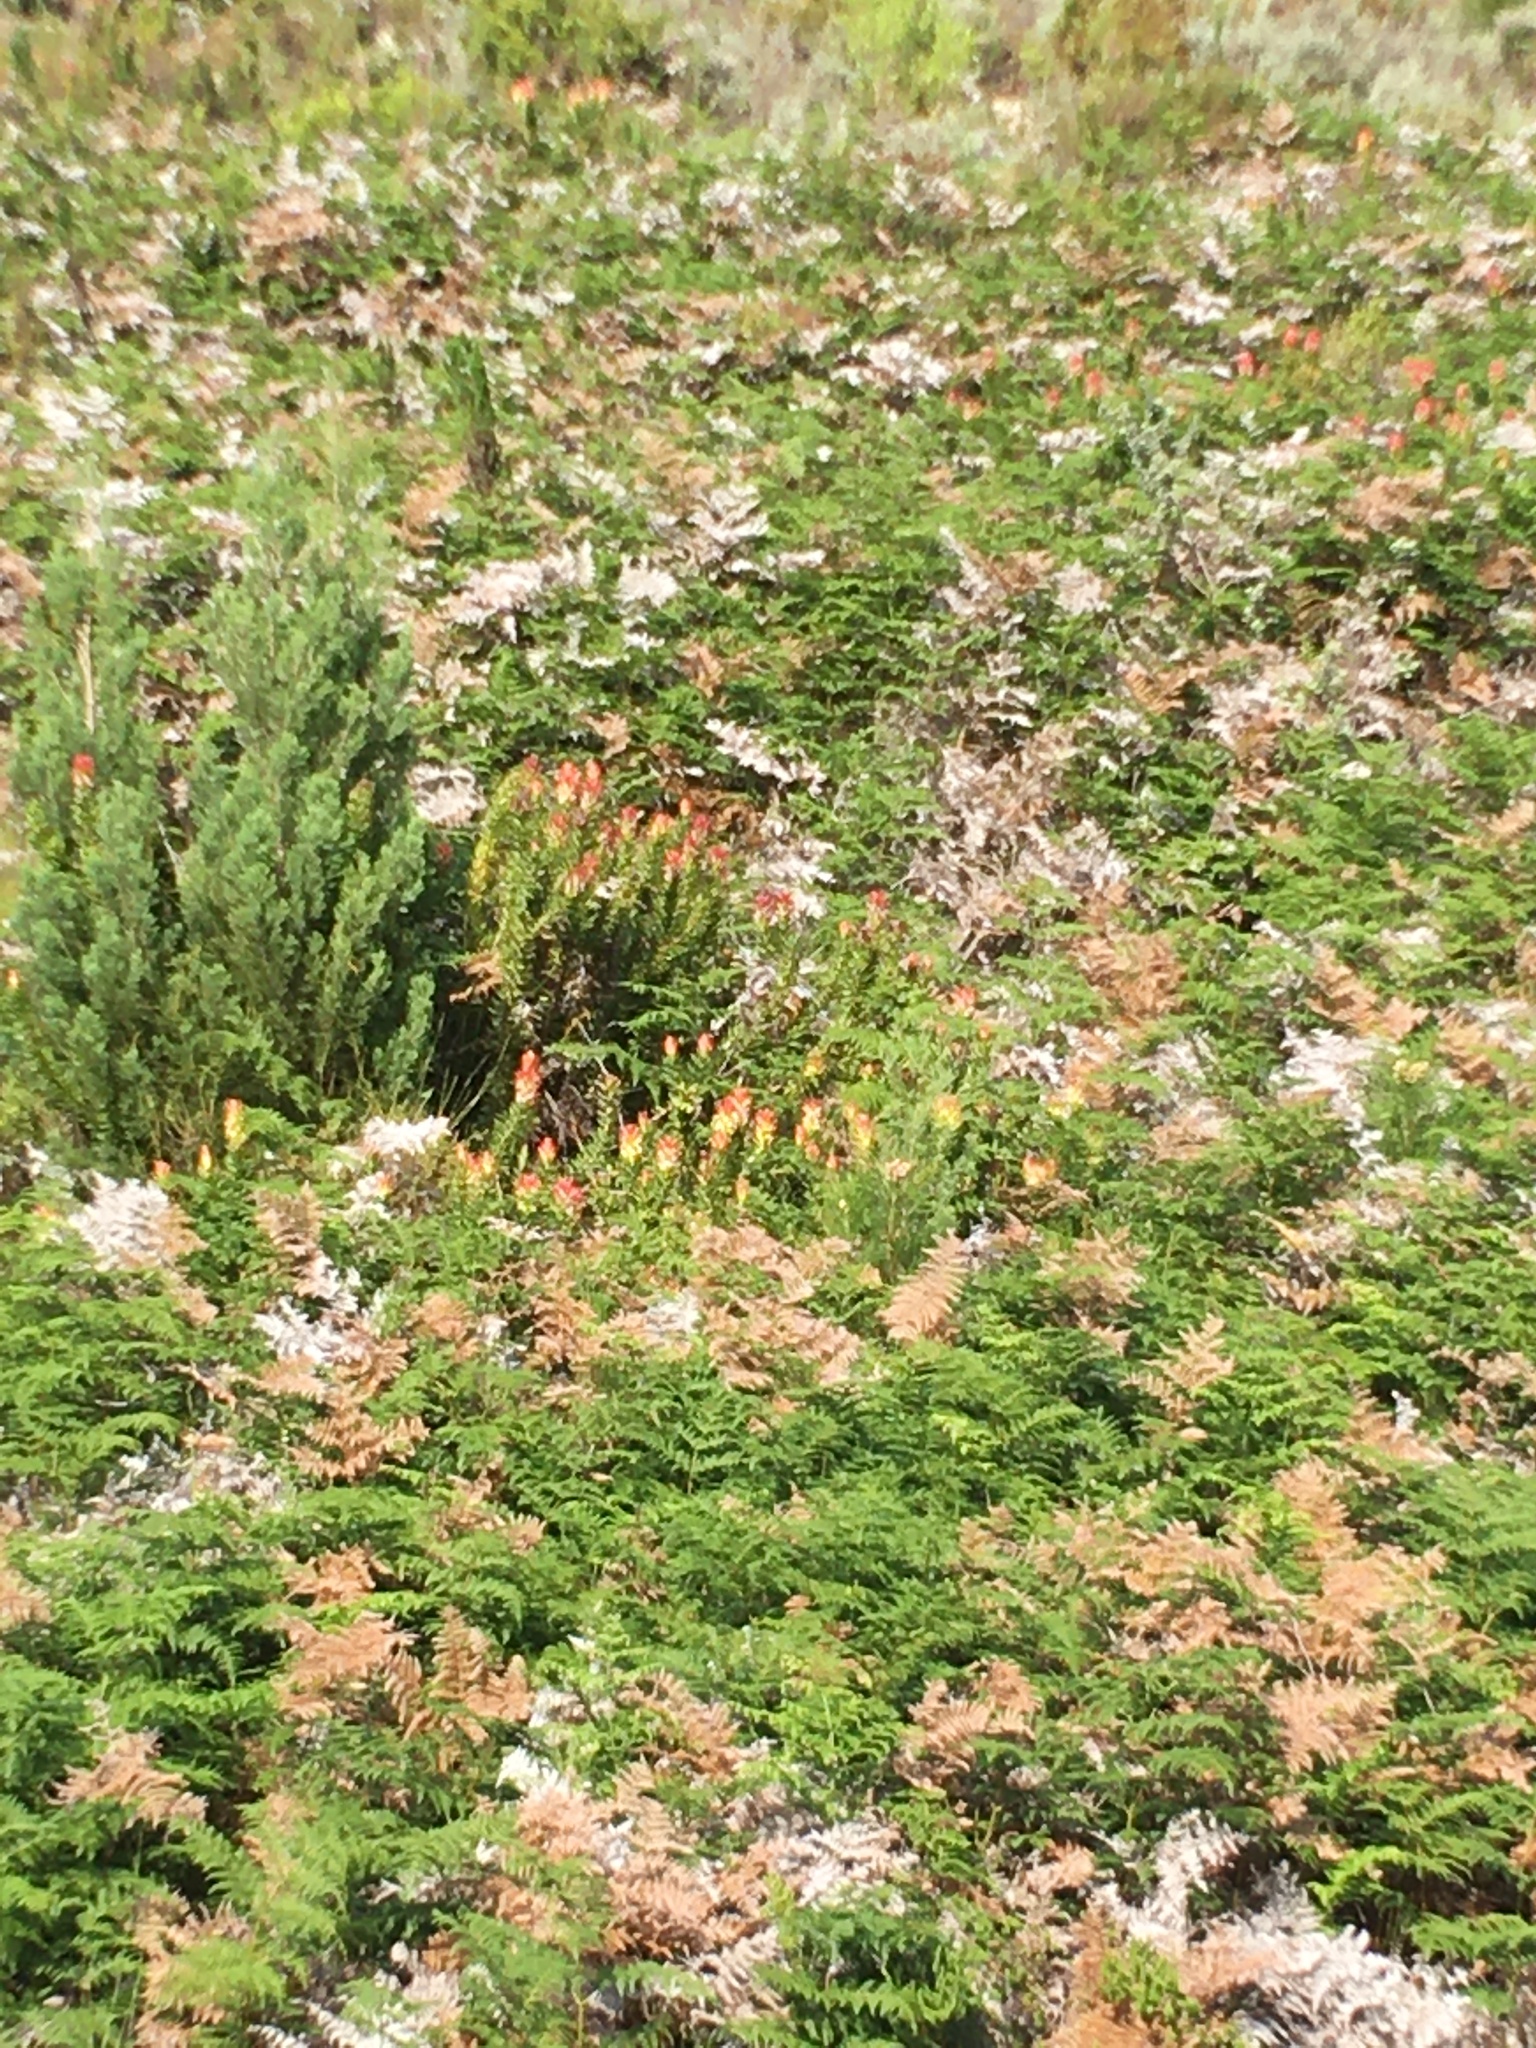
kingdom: Plantae
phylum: Tracheophyta
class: Magnoliopsida
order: Proteales
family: Proteaceae
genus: Mimetes
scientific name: Mimetes cucullatus
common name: Common pagoda
